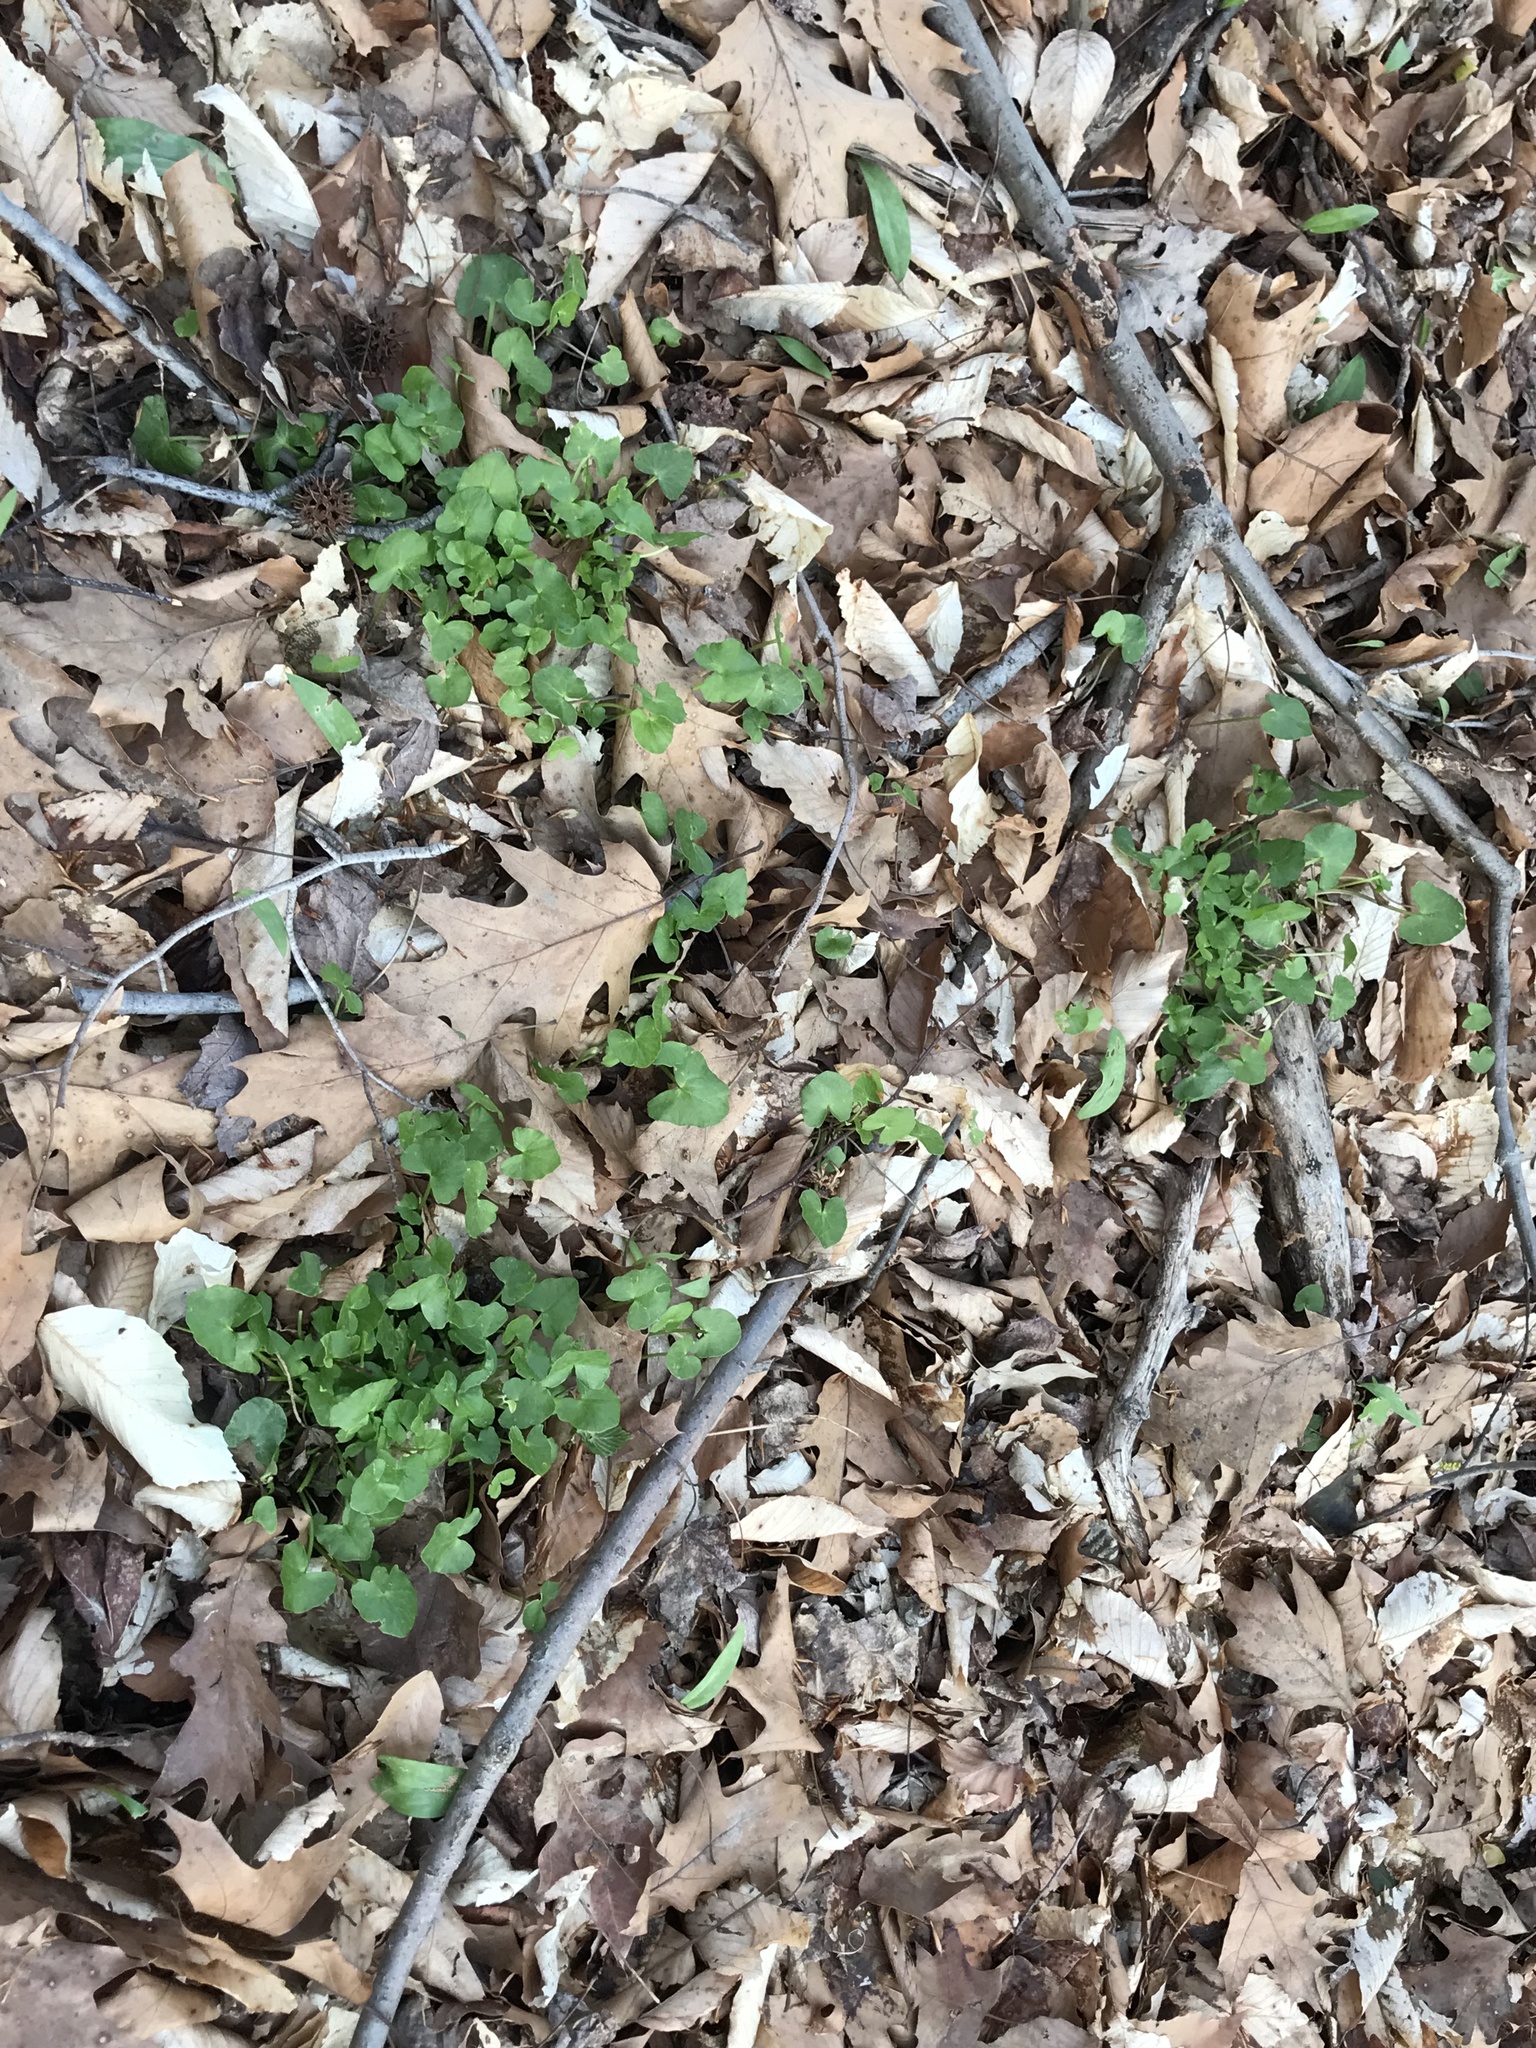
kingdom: Plantae
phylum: Tracheophyta
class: Magnoliopsida
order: Ranunculales
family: Ranunculaceae
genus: Ficaria
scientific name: Ficaria verna
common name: Lesser celandine
